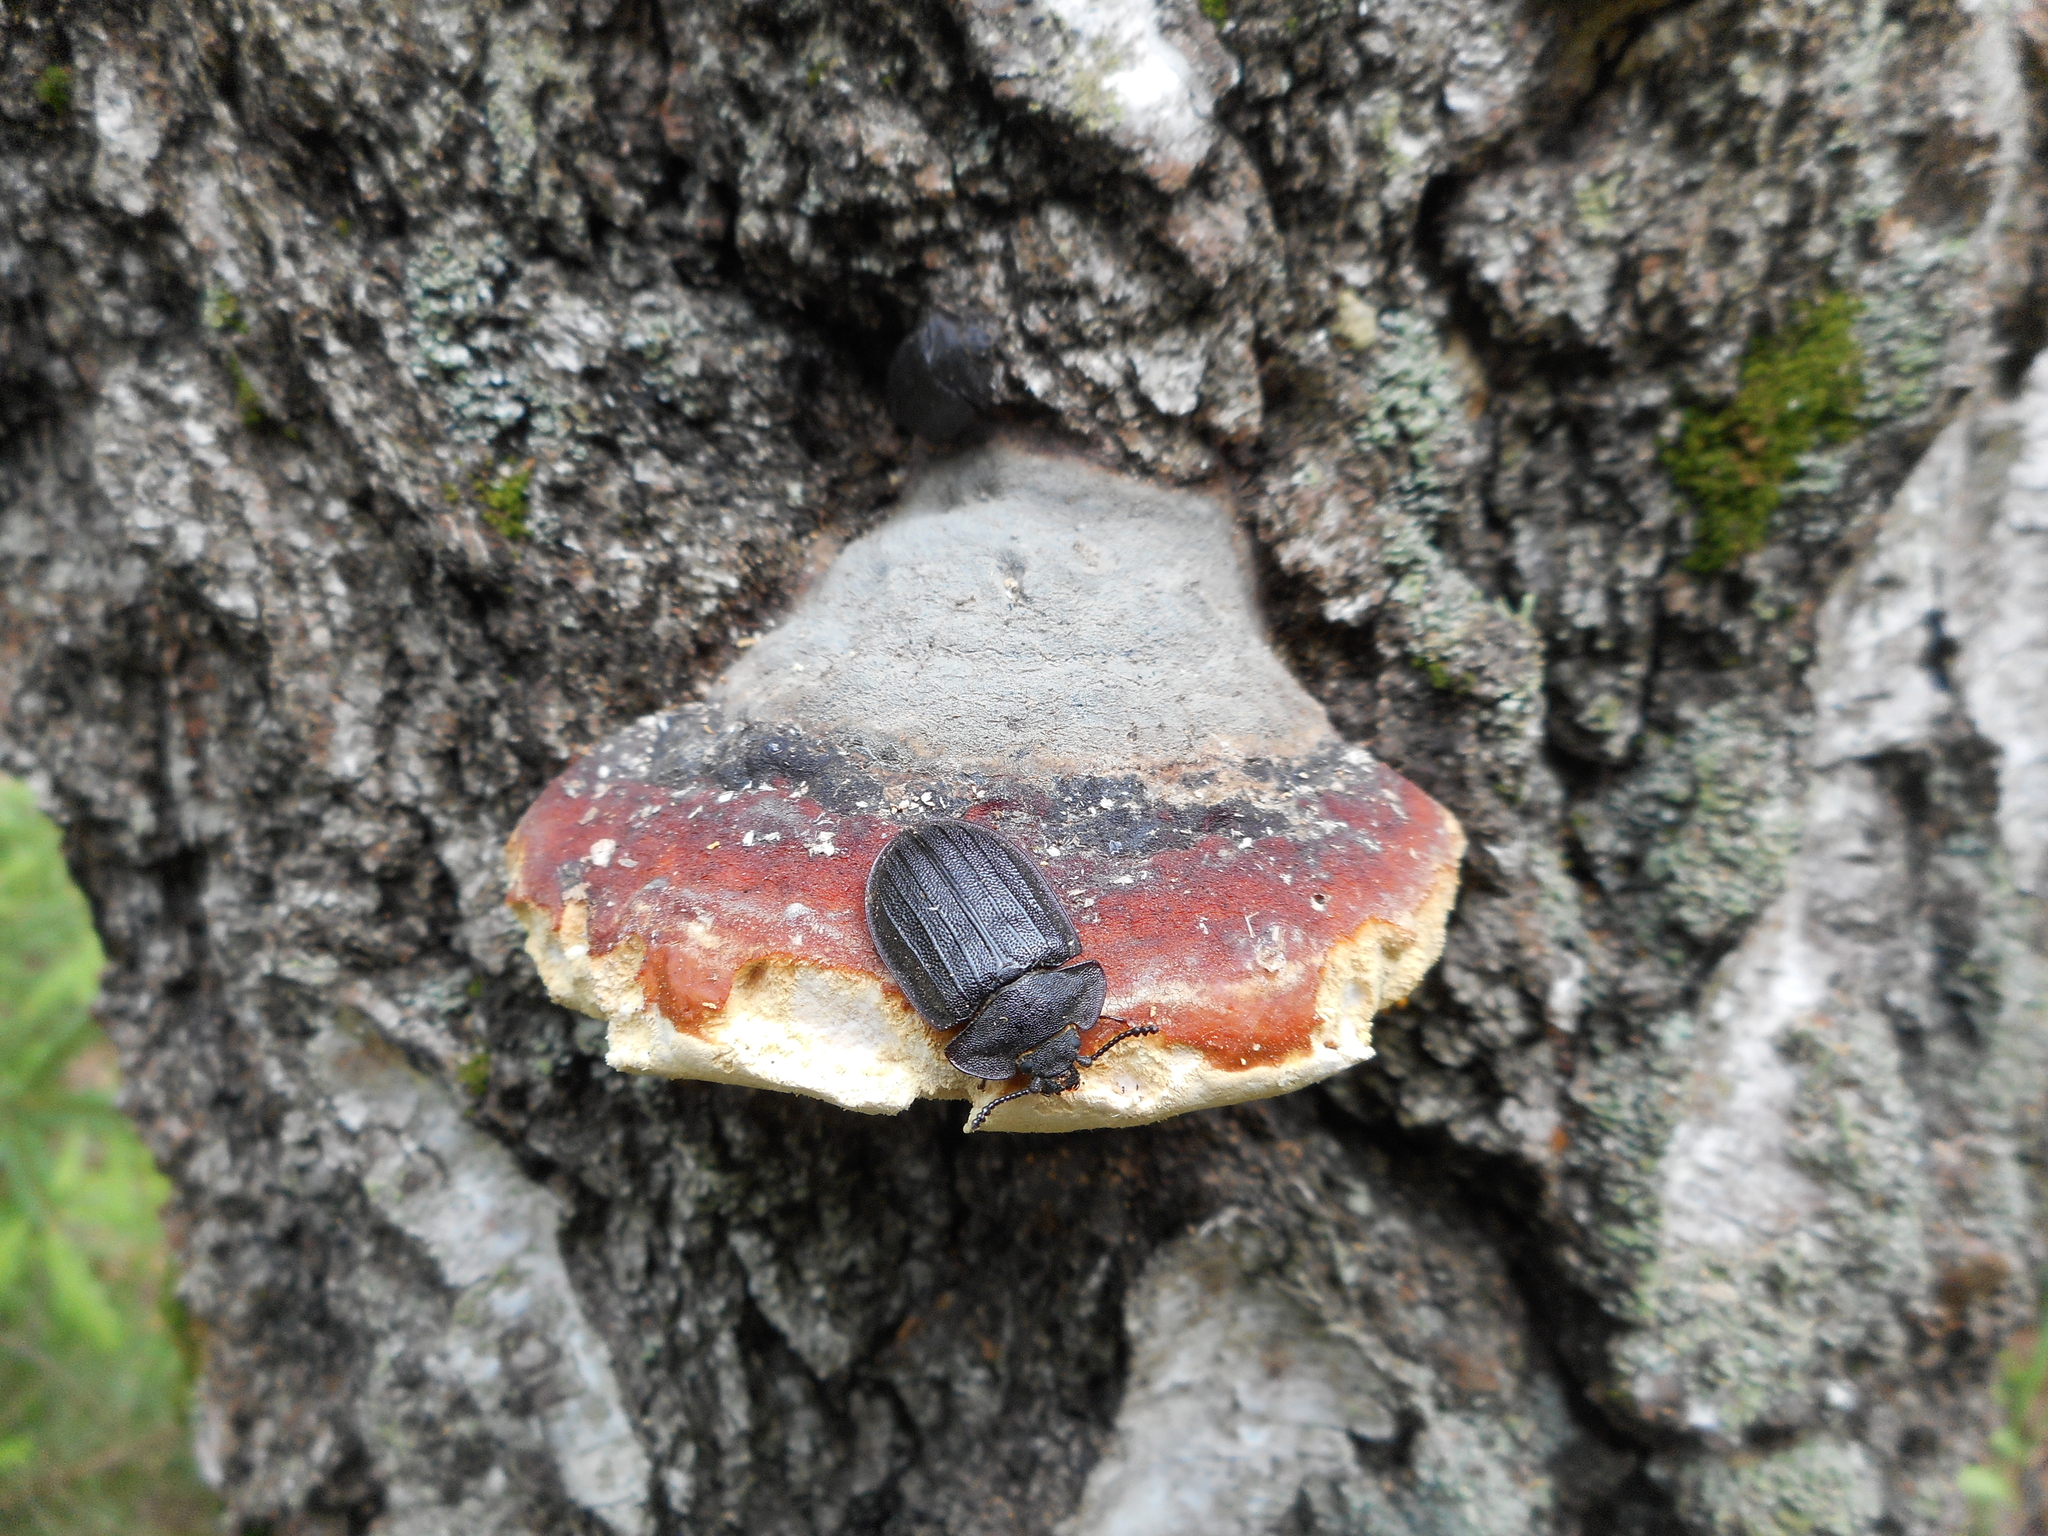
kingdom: Animalia
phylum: Arthropoda
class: Insecta
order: Coleoptera
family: Trogossitidae
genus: Peltis
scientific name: Peltis grossa
